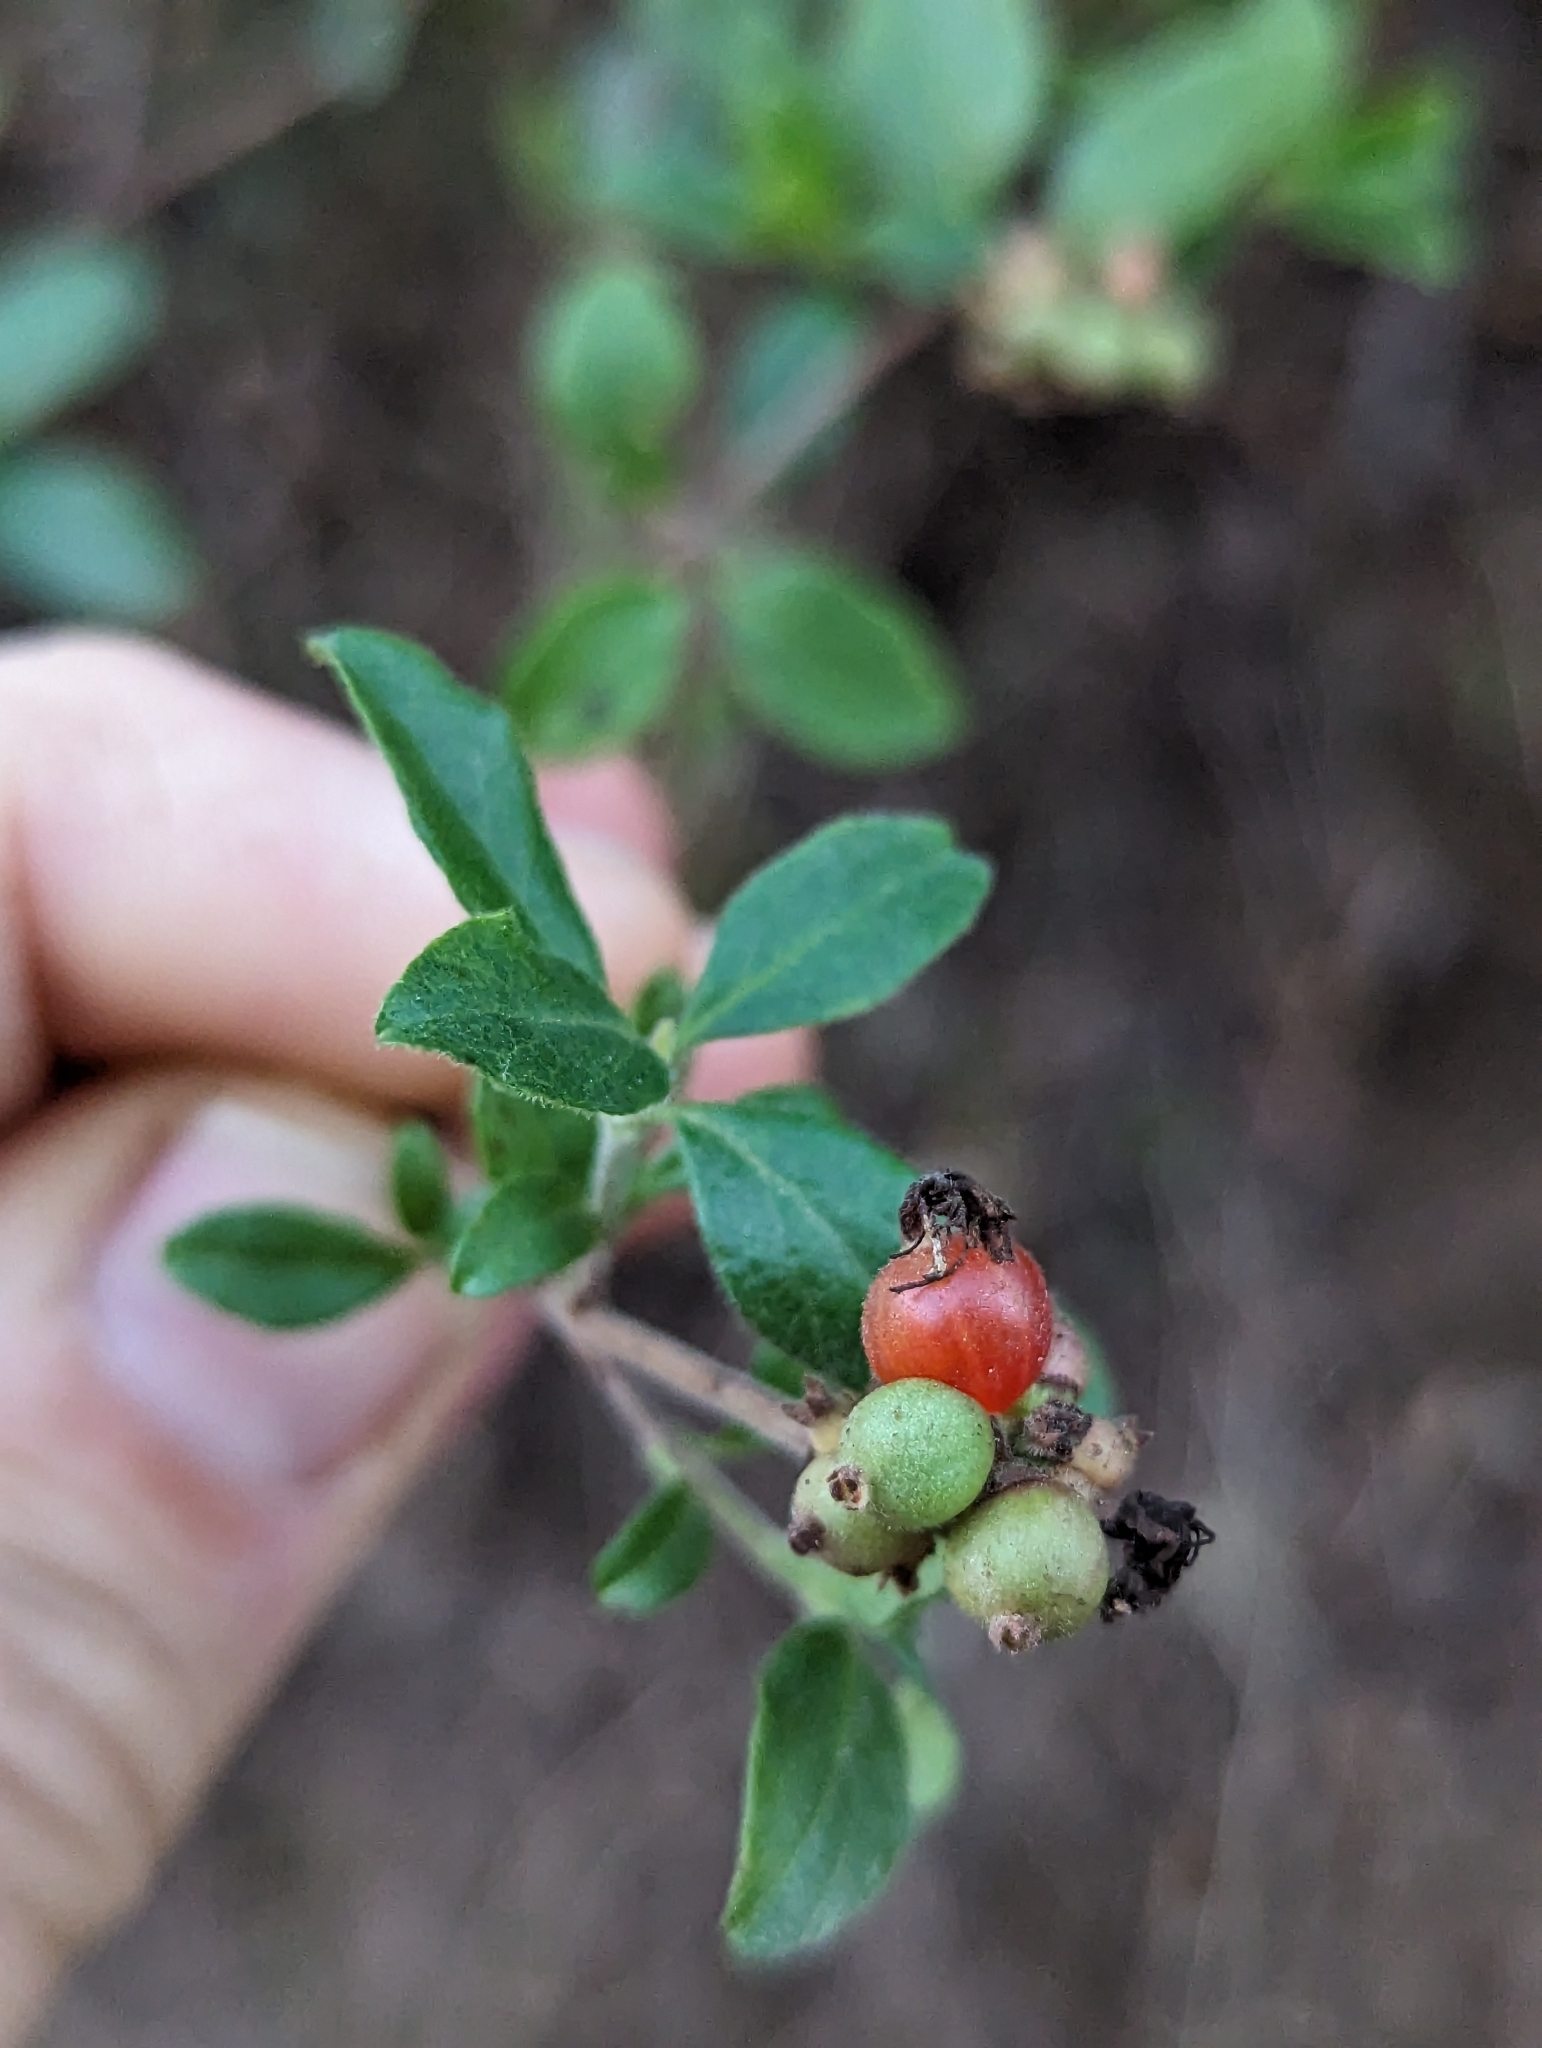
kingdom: Plantae
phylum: Tracheophyta
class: Magnoliopsida
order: Dipsacales
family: Caprifoliaceae
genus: Lonicera
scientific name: Lonicera subspicata
